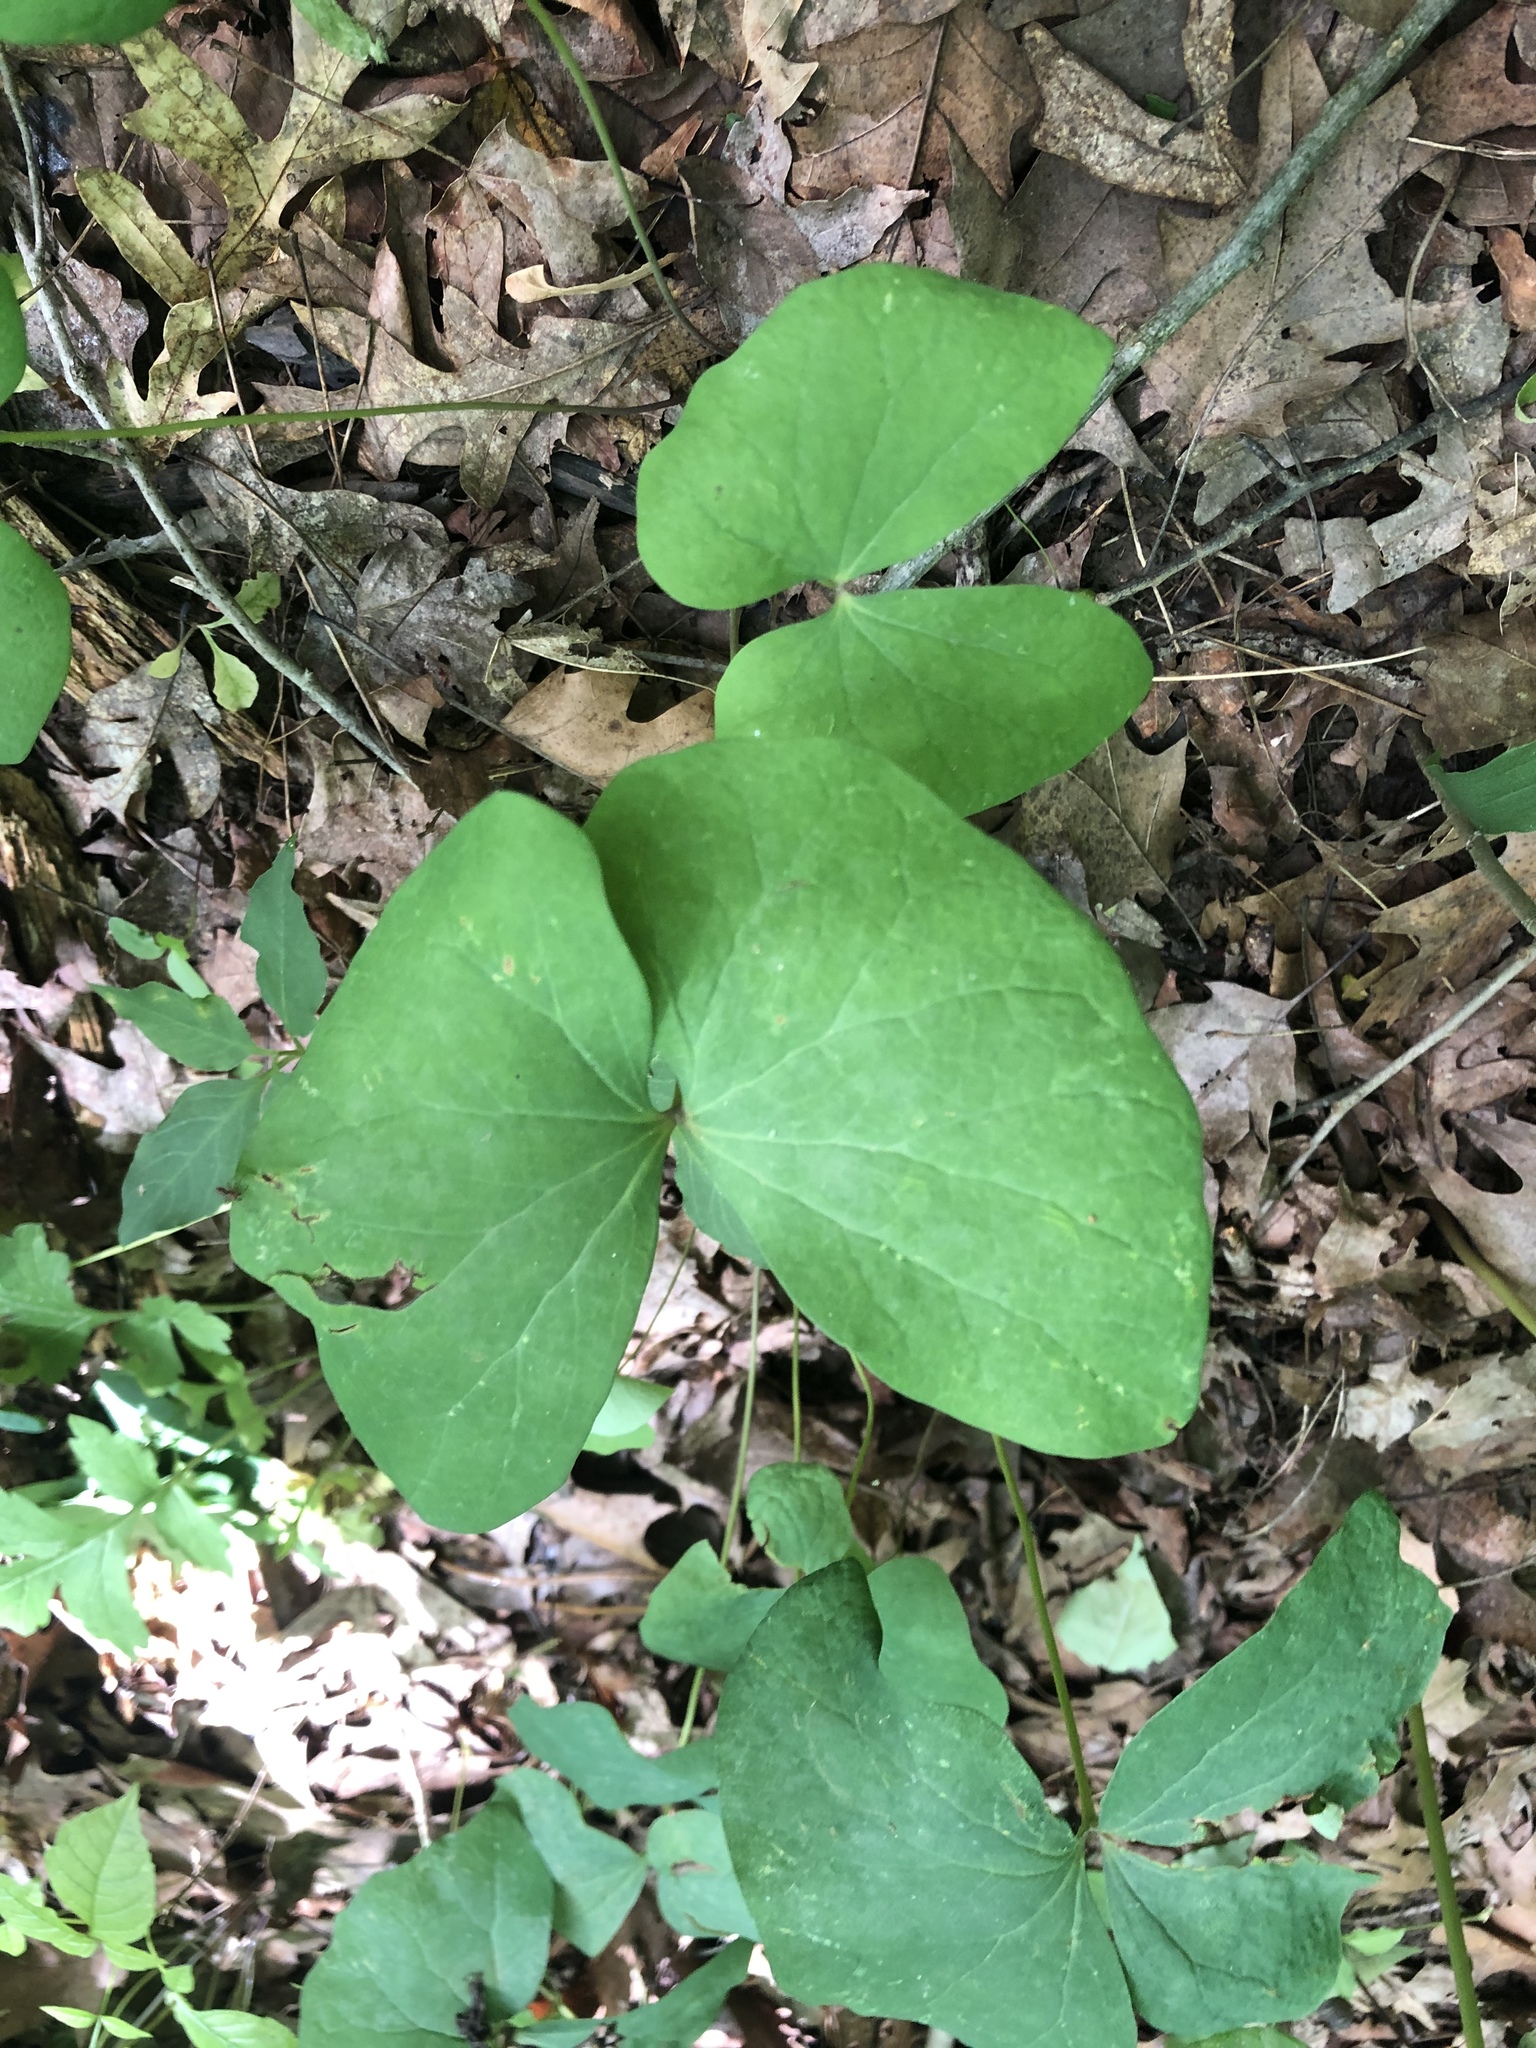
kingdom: Plantae
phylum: Tracheophyta
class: Magnoliopsida
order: Ranunculales
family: Berberidaceae
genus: Jeffersonia
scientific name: Jeffersonia diphylla
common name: Rheumatism-root
